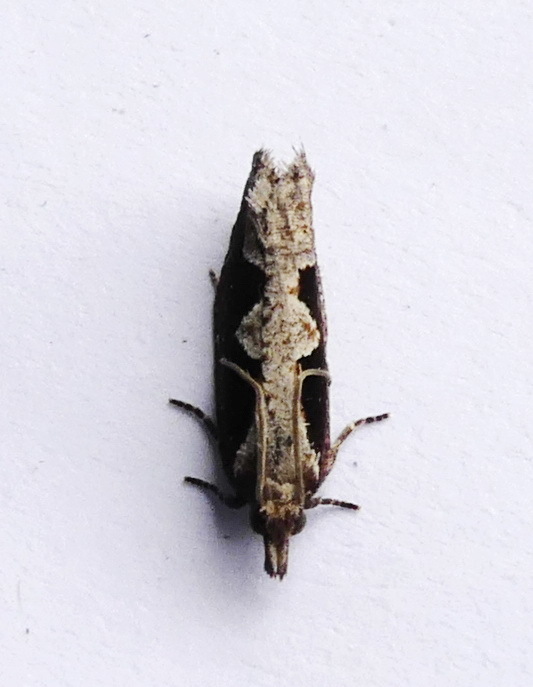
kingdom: Animalia
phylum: Arthropoda
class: Insecta
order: Lepidoptera
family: Tortricidae
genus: Epinotia
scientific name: Epinotia lindana
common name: Diamondback epinotia moth
